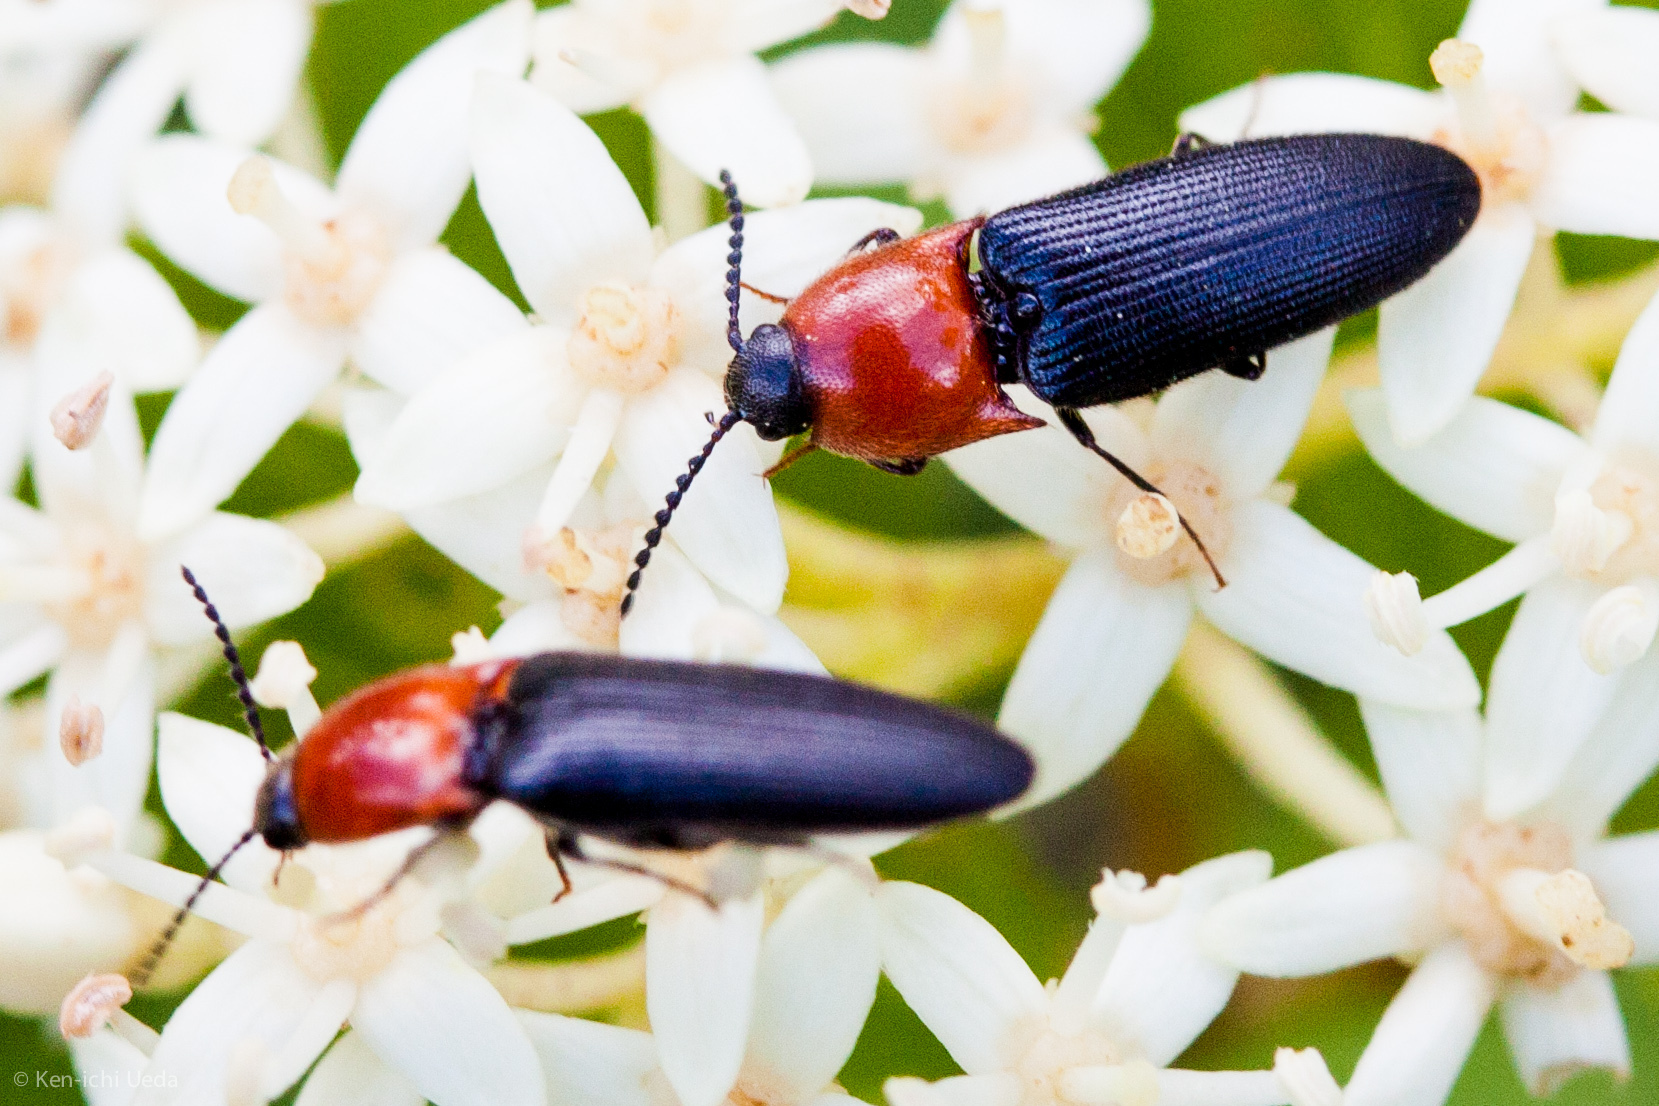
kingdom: Animalia
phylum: Arthropoda
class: Insecta
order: Coleoptera
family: Elateridae
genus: Ampedus
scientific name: Ampedus collaris
